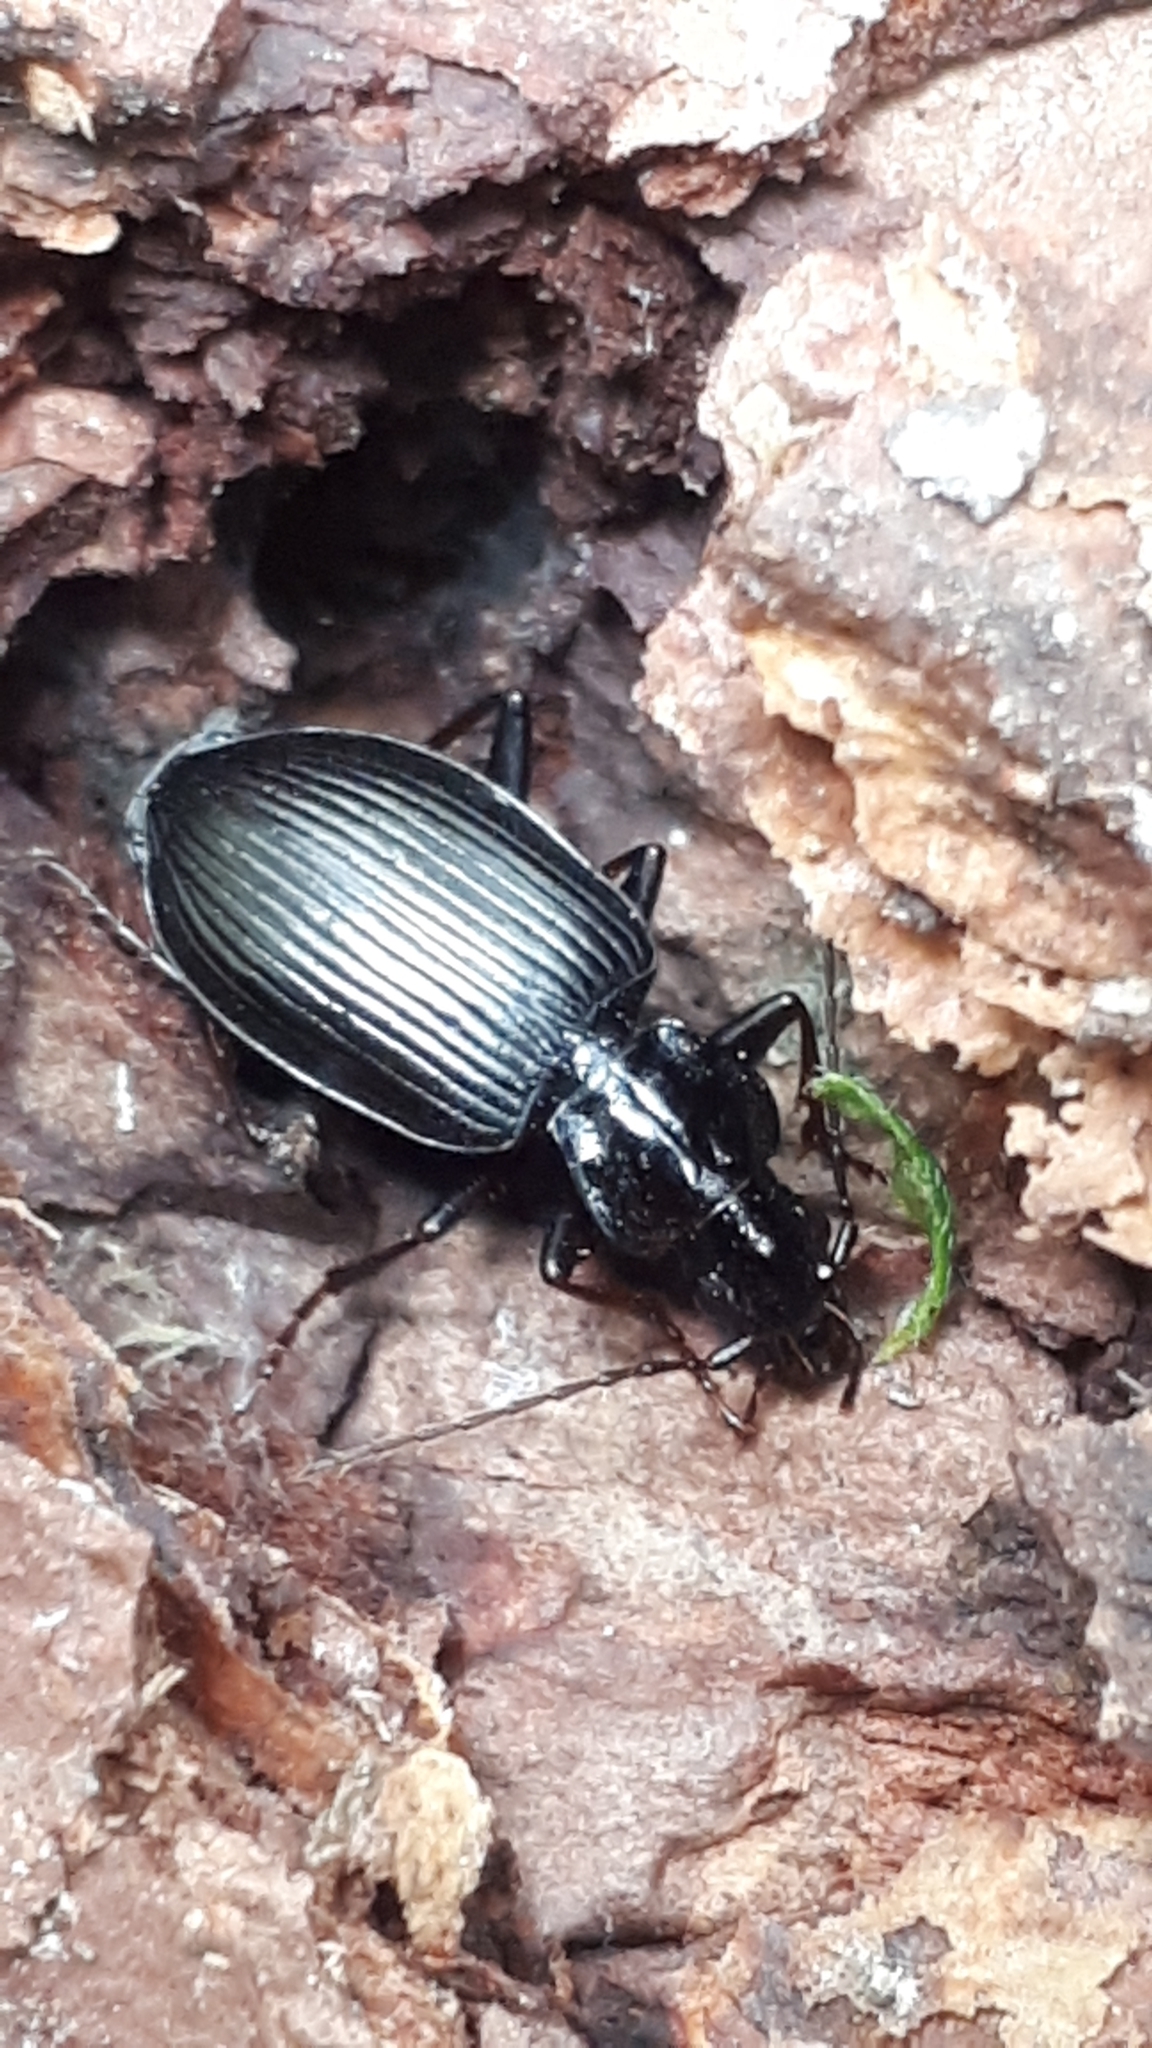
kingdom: Animalia
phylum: Arthropoda
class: Insecta
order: Coleoptera
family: Carabidae
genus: Platynus
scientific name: Platynus assimilis
